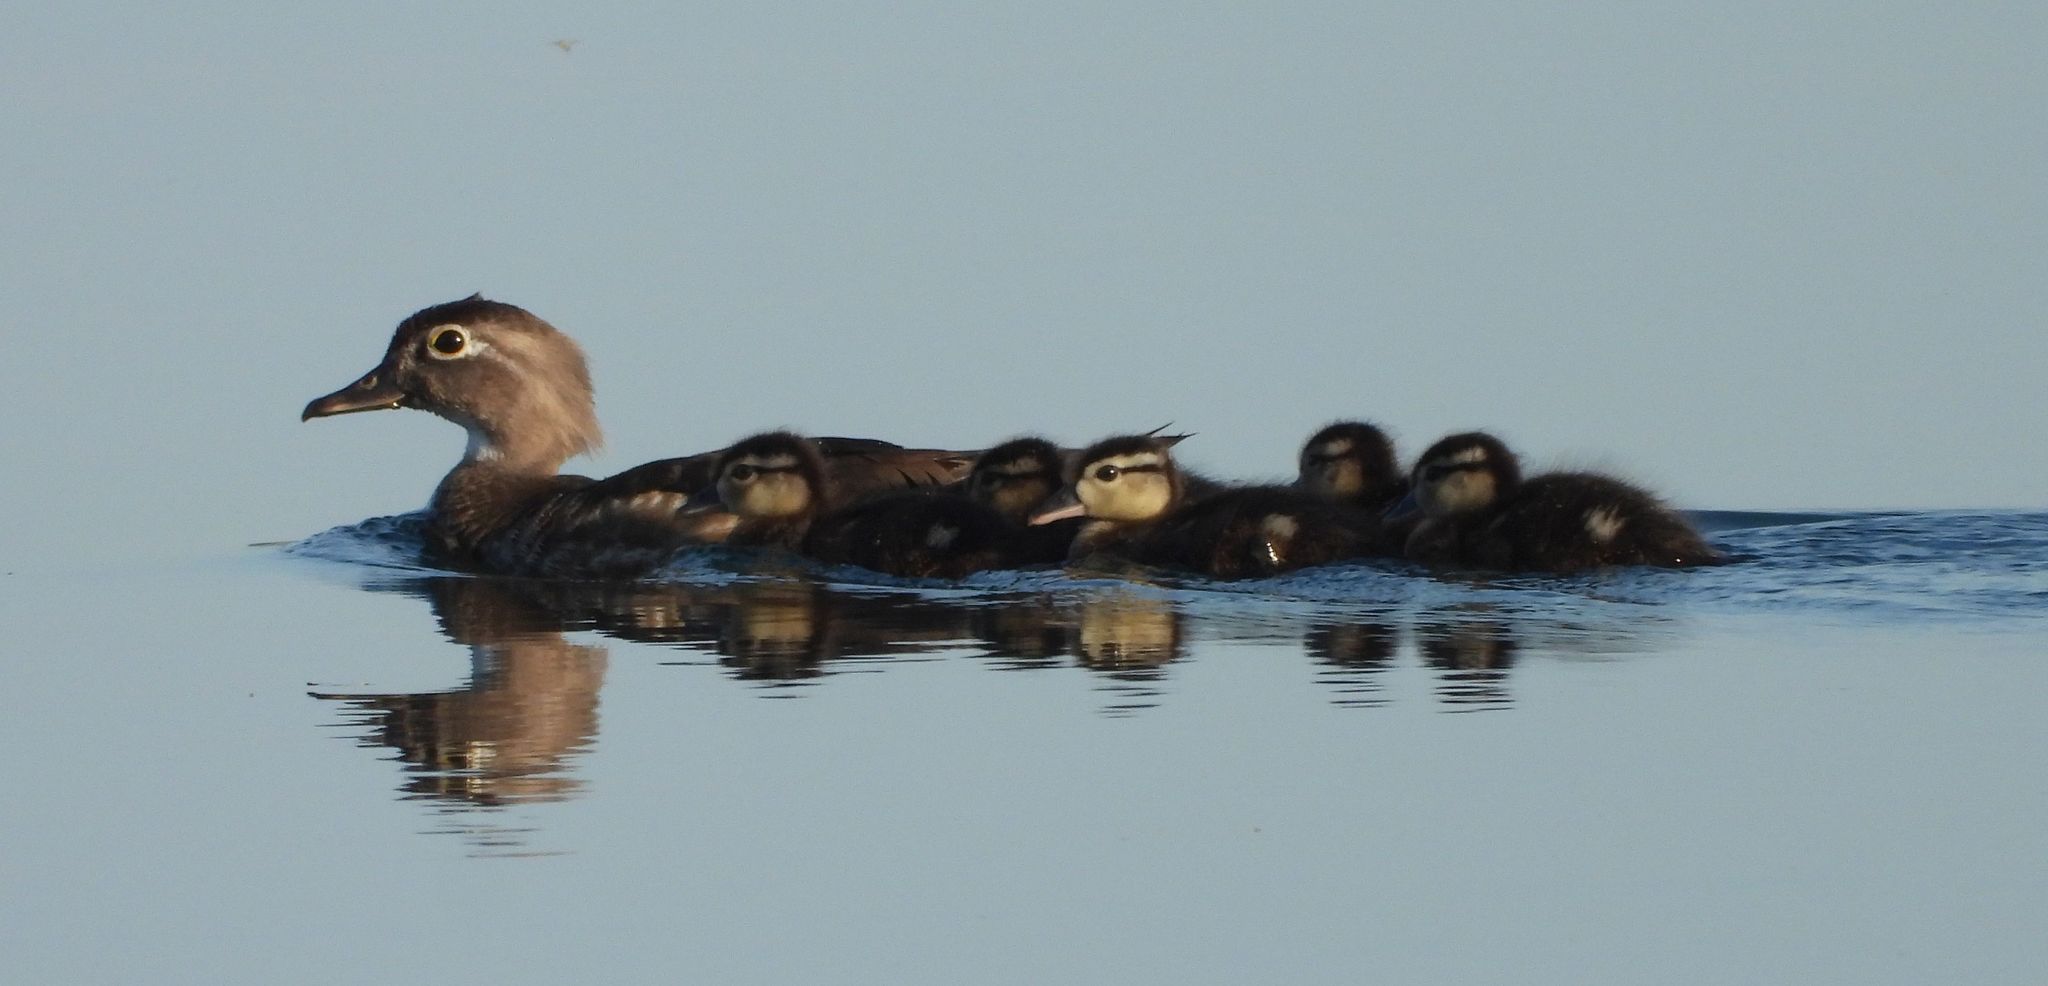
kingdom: Animalia
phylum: Chordata
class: Aves
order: Anseriformes
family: Anatidae
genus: Aix
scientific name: Aix sponsa
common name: Wood duck
